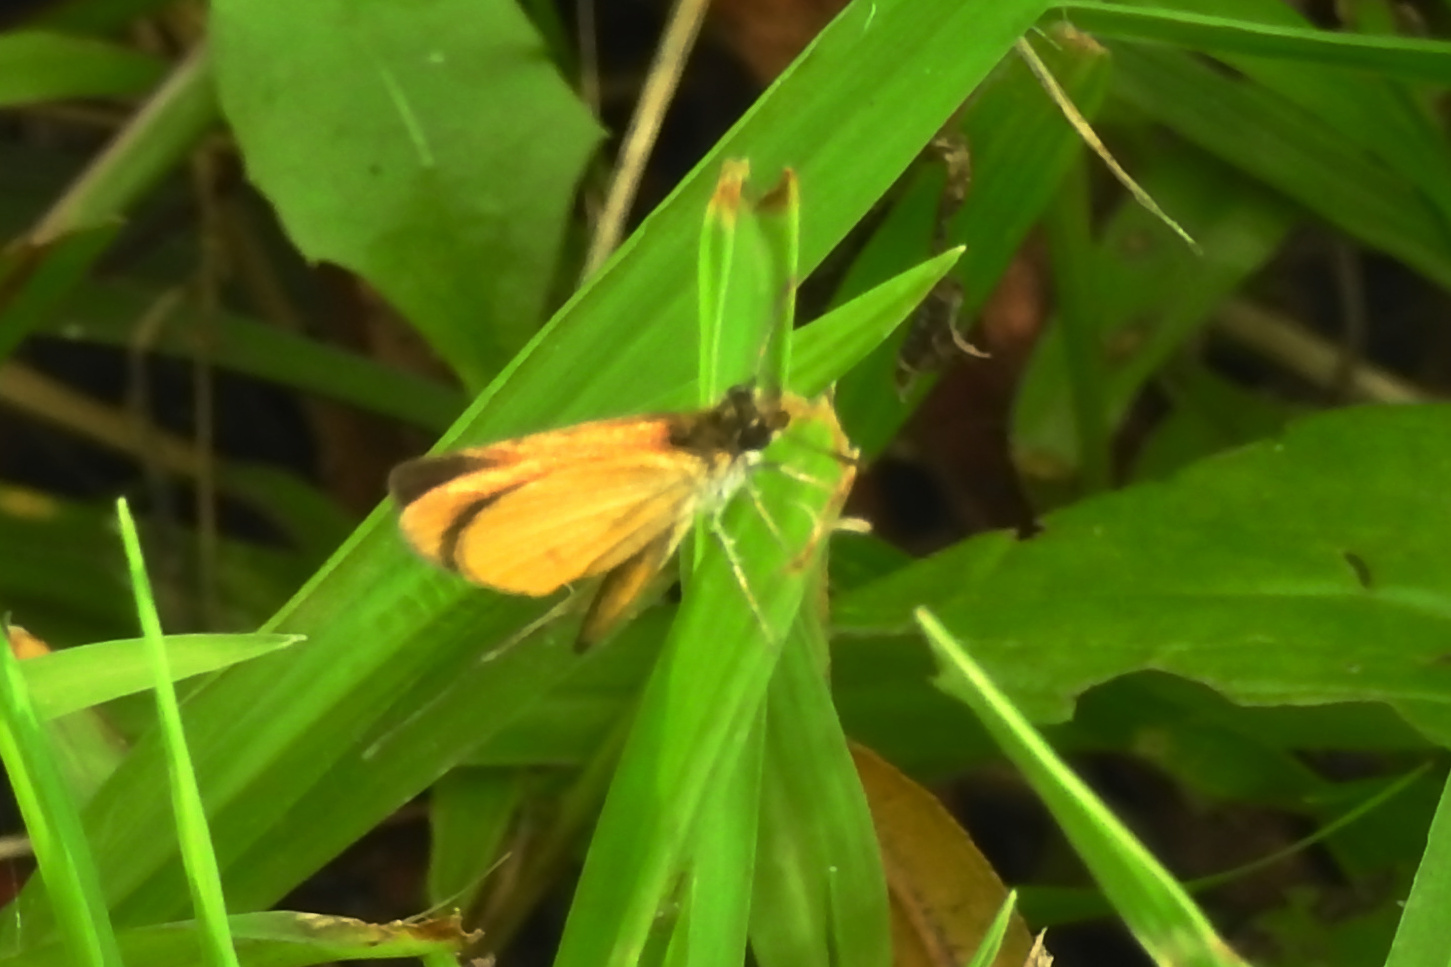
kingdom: Animalia
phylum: Arthropoda
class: Insecta
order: Lepidoptera
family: Hesperiidae
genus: Ancyloxypha
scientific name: Ancyloxypha numitor
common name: Least skipper
